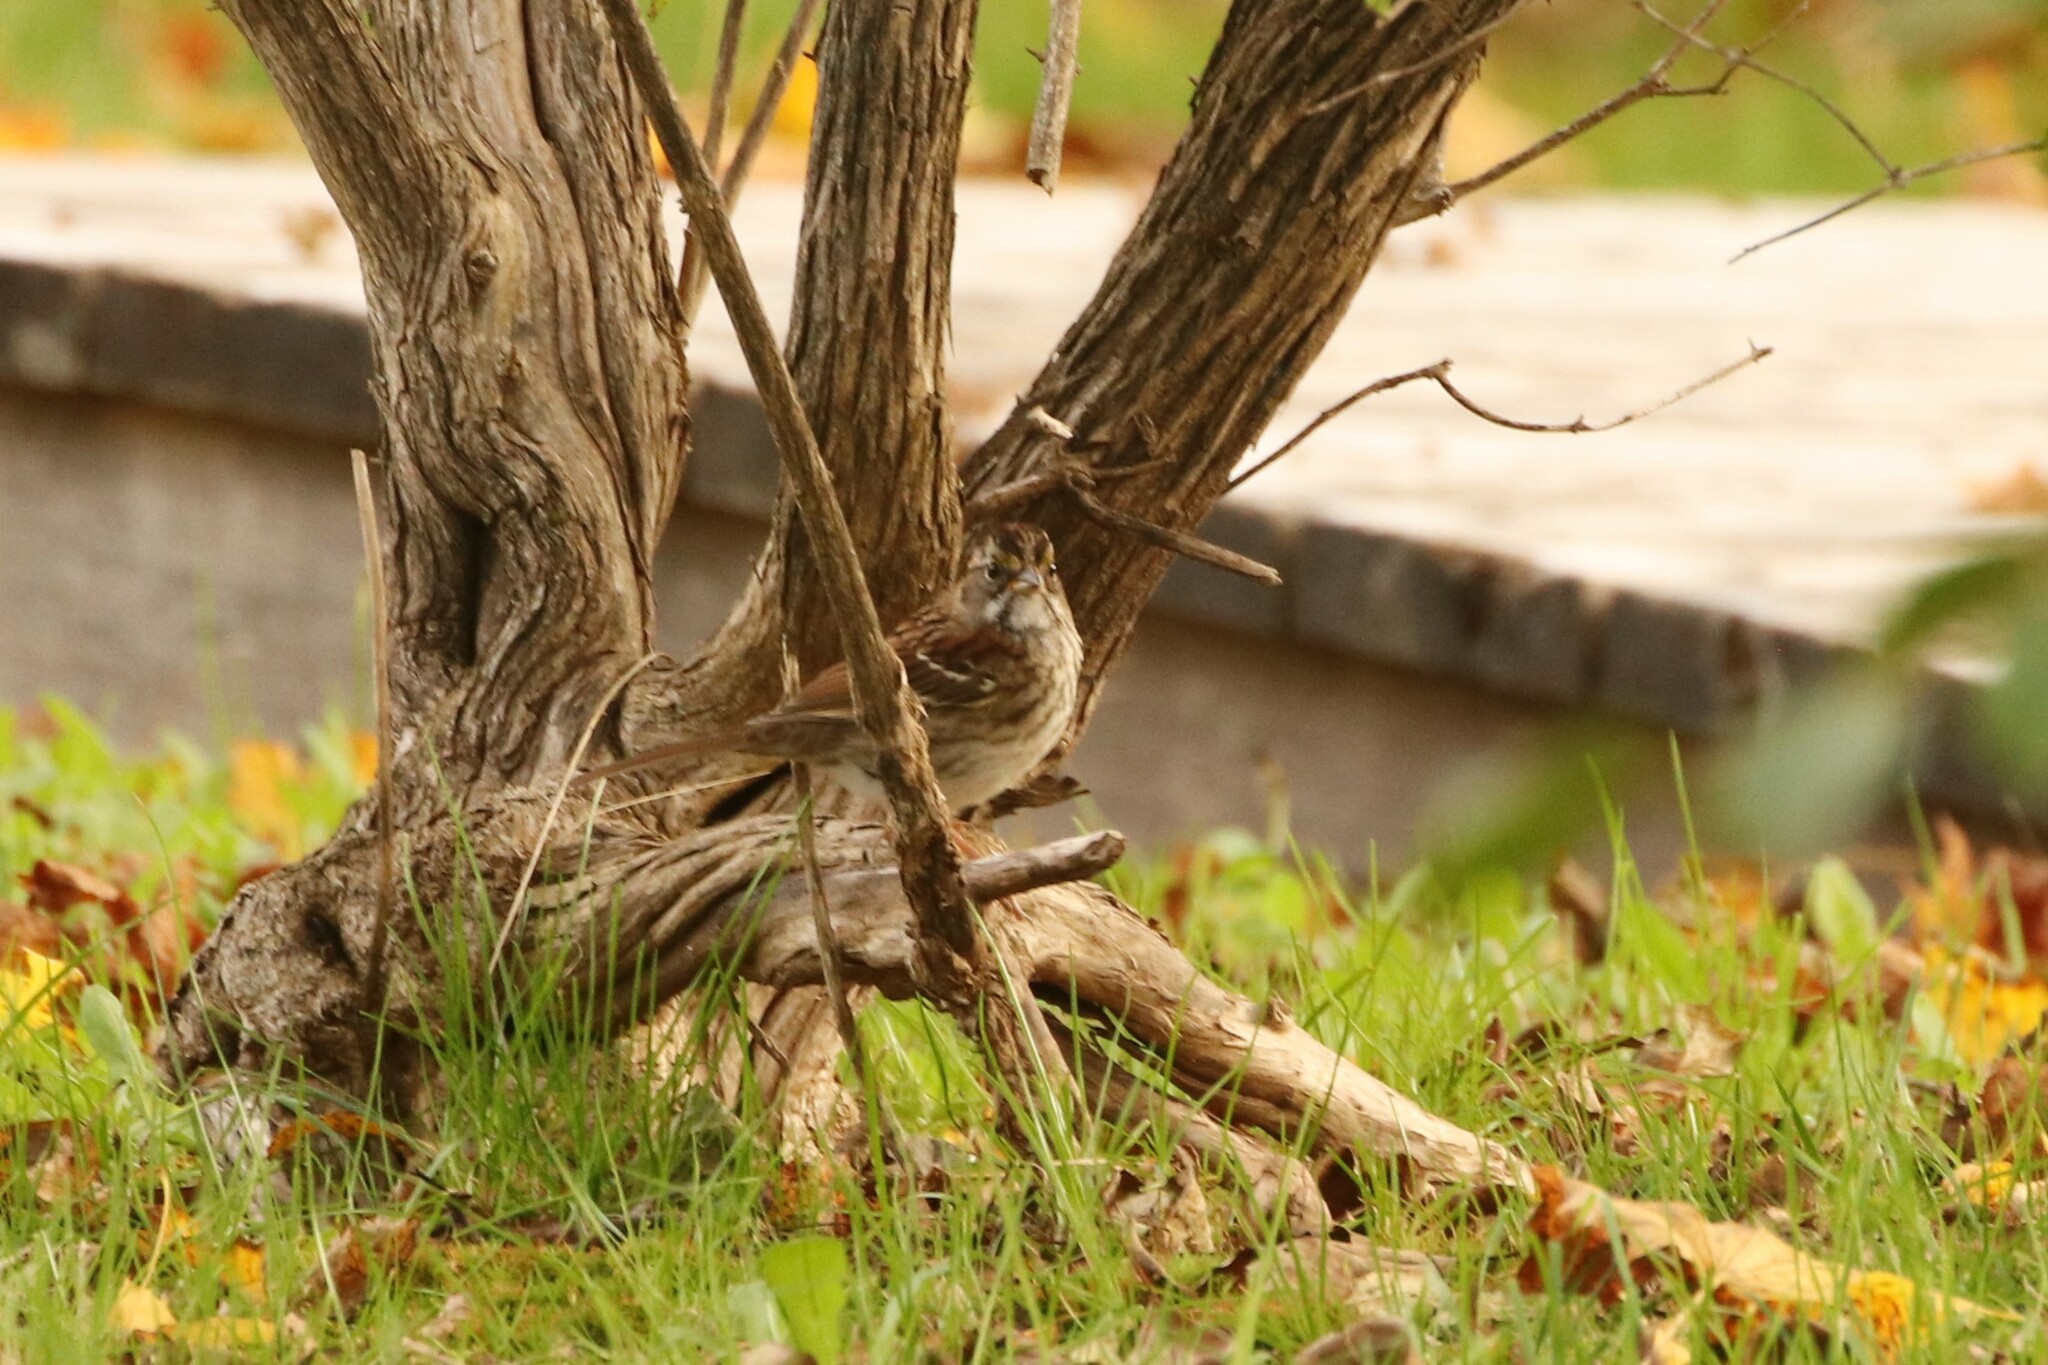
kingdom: Animalia
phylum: Chordata
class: Aves
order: Passeriformes
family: Passerellidae
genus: Zonotrichia
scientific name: Zonotrichia albicollis
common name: White-throated sparrow
